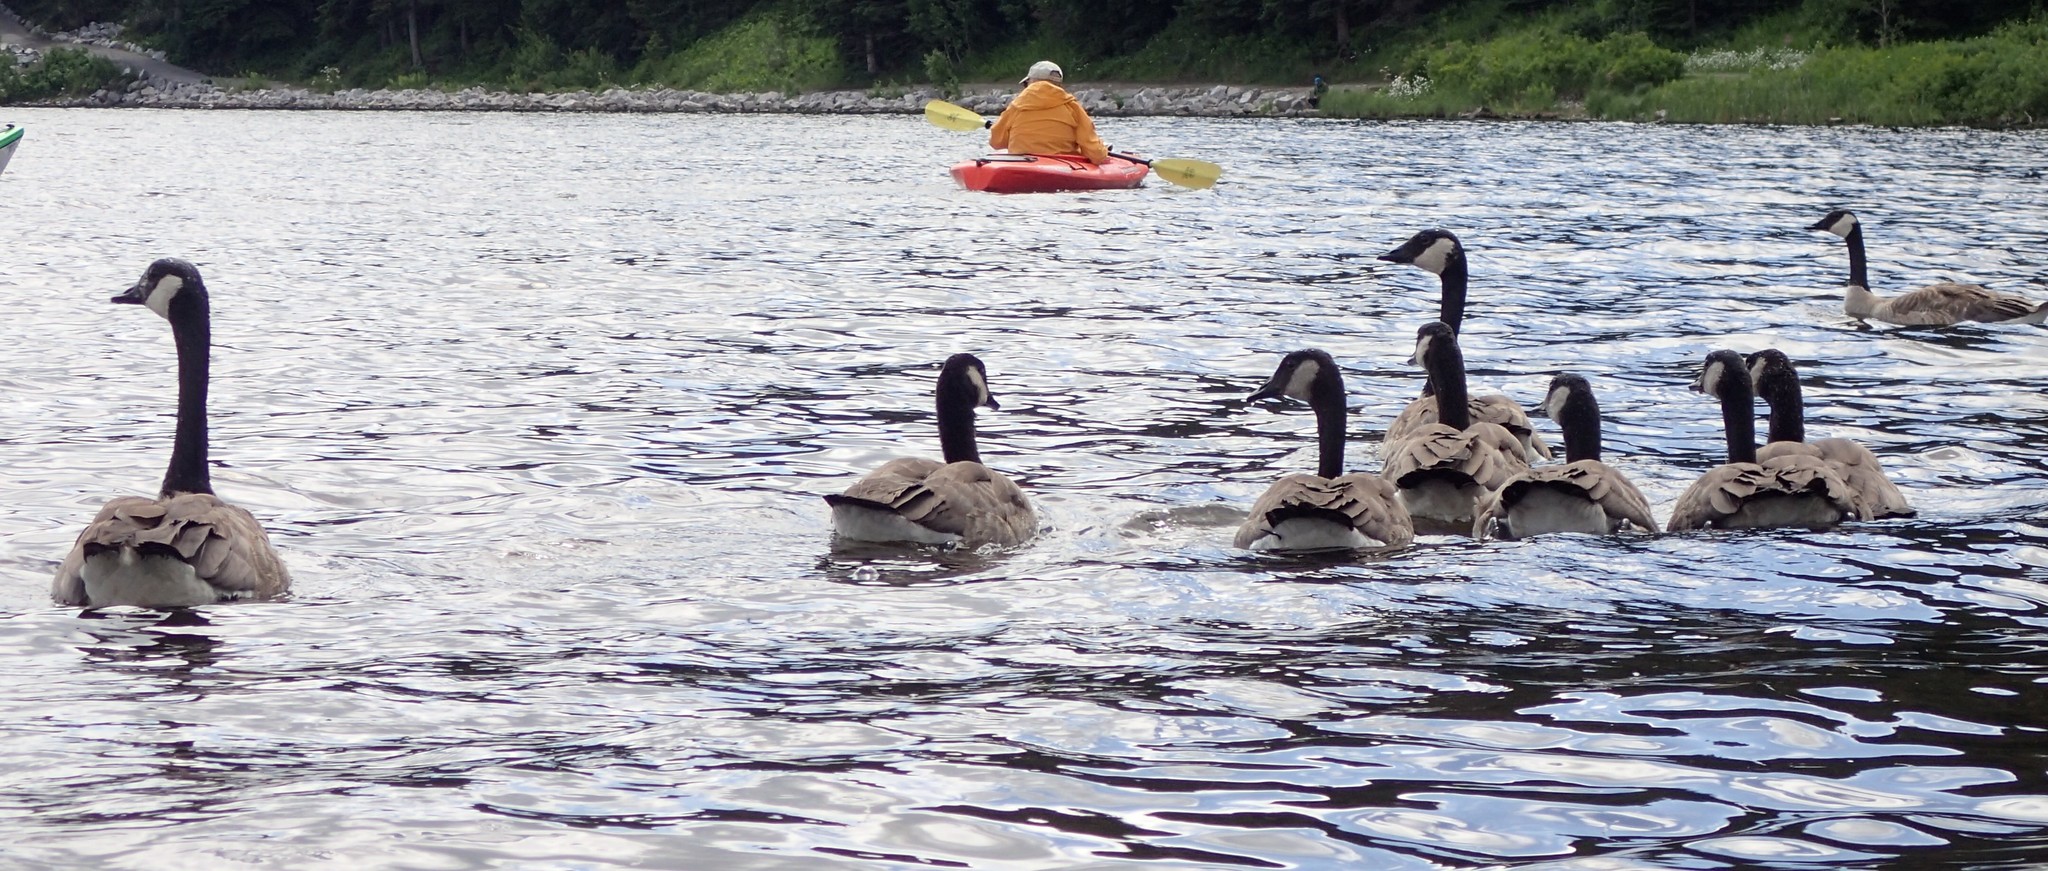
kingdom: Animalia
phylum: Chordata
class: Aves
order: Anseriformes
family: Anatidae
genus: Branta
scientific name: Branta canadensis
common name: Canada goose
